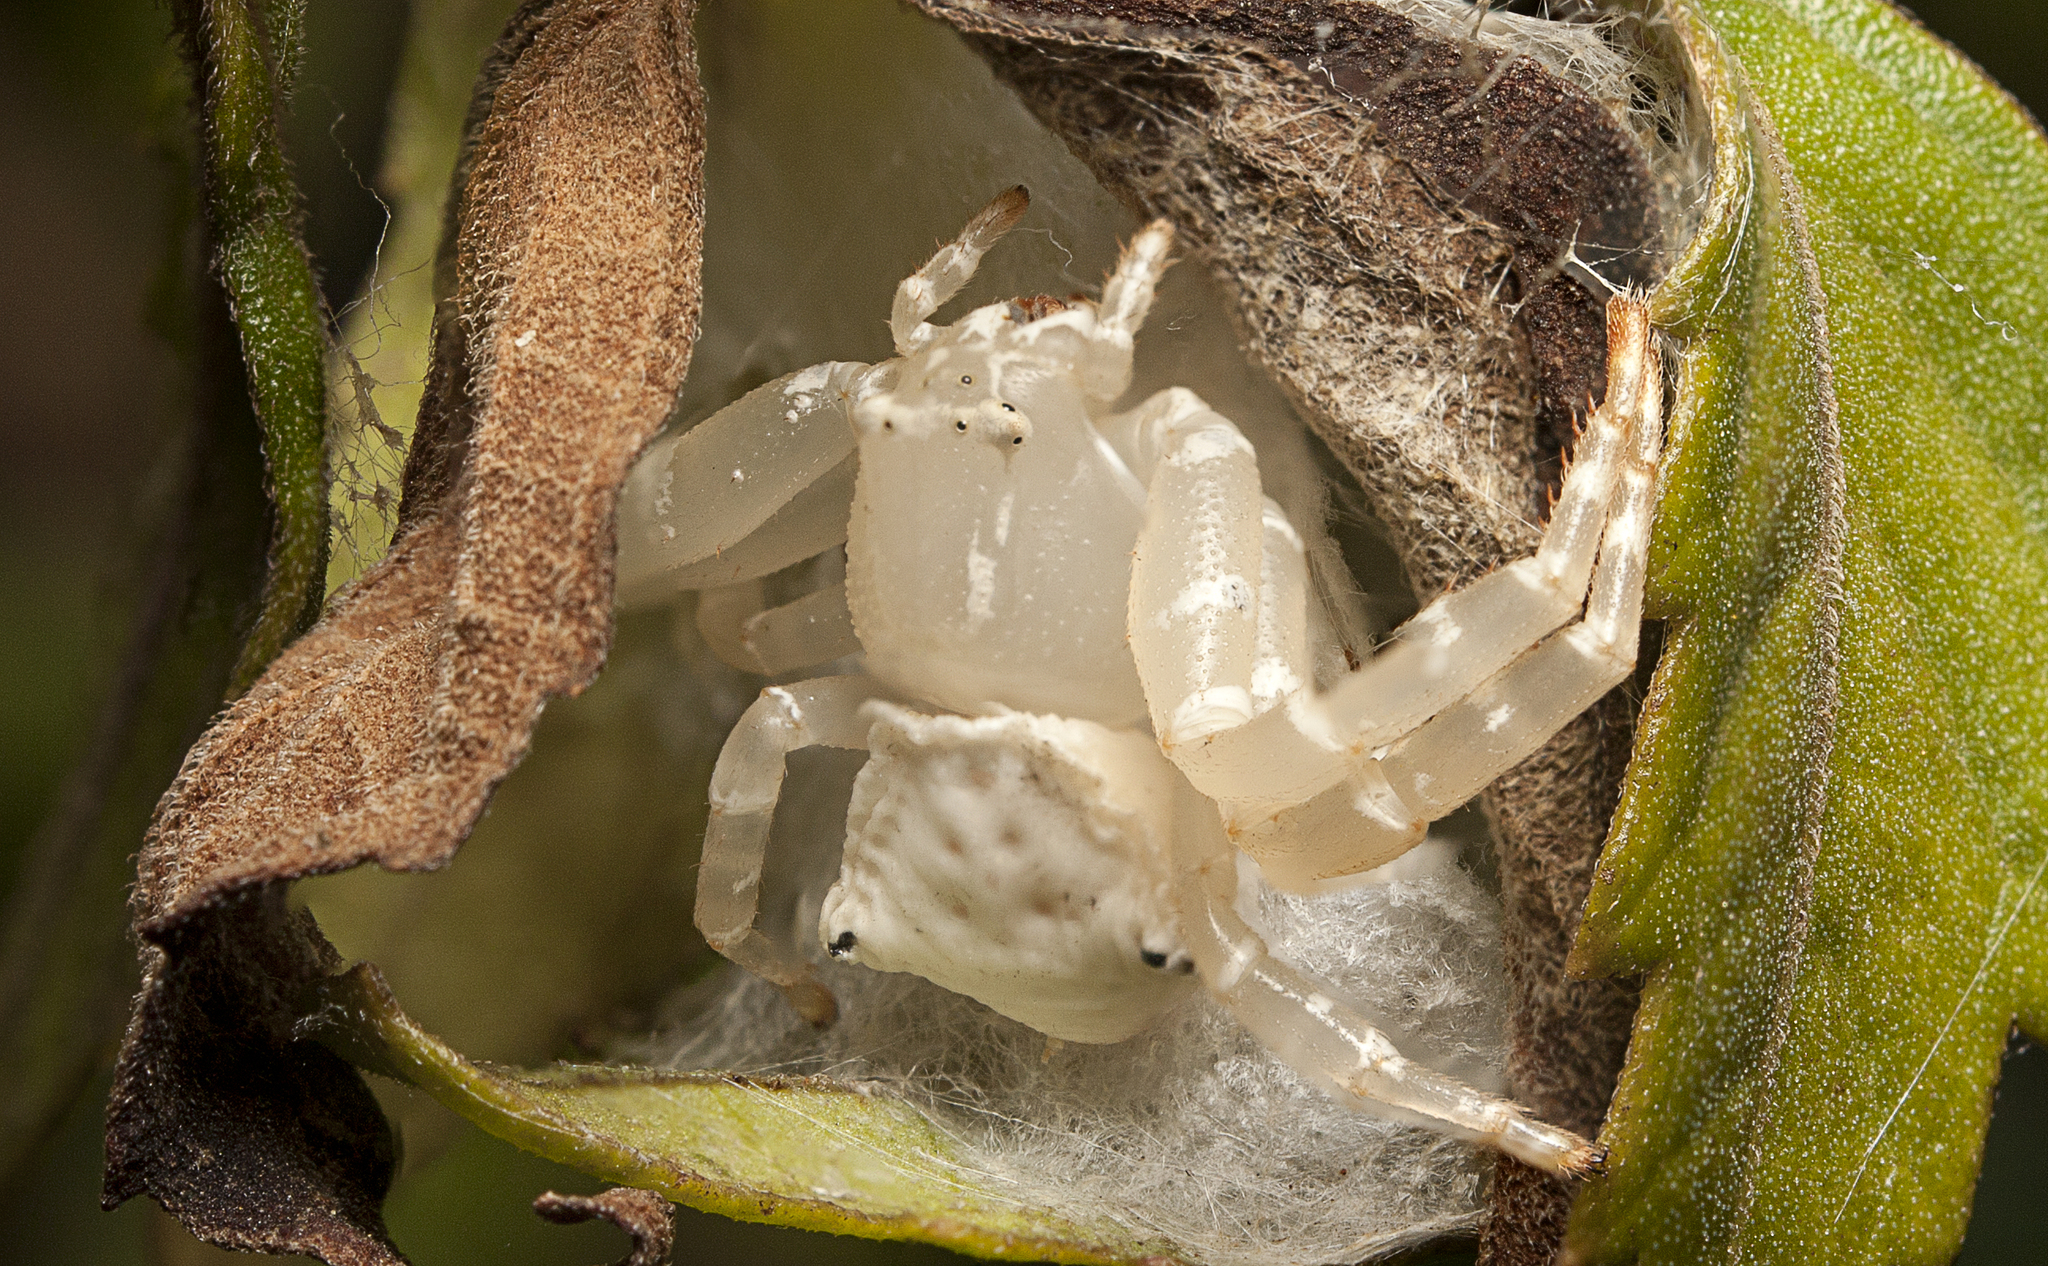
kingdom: Animalia
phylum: Arthropoda
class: Arachnida
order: Araneae
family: Thomisidae
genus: Thomisus
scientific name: Thomisus spectabilis
